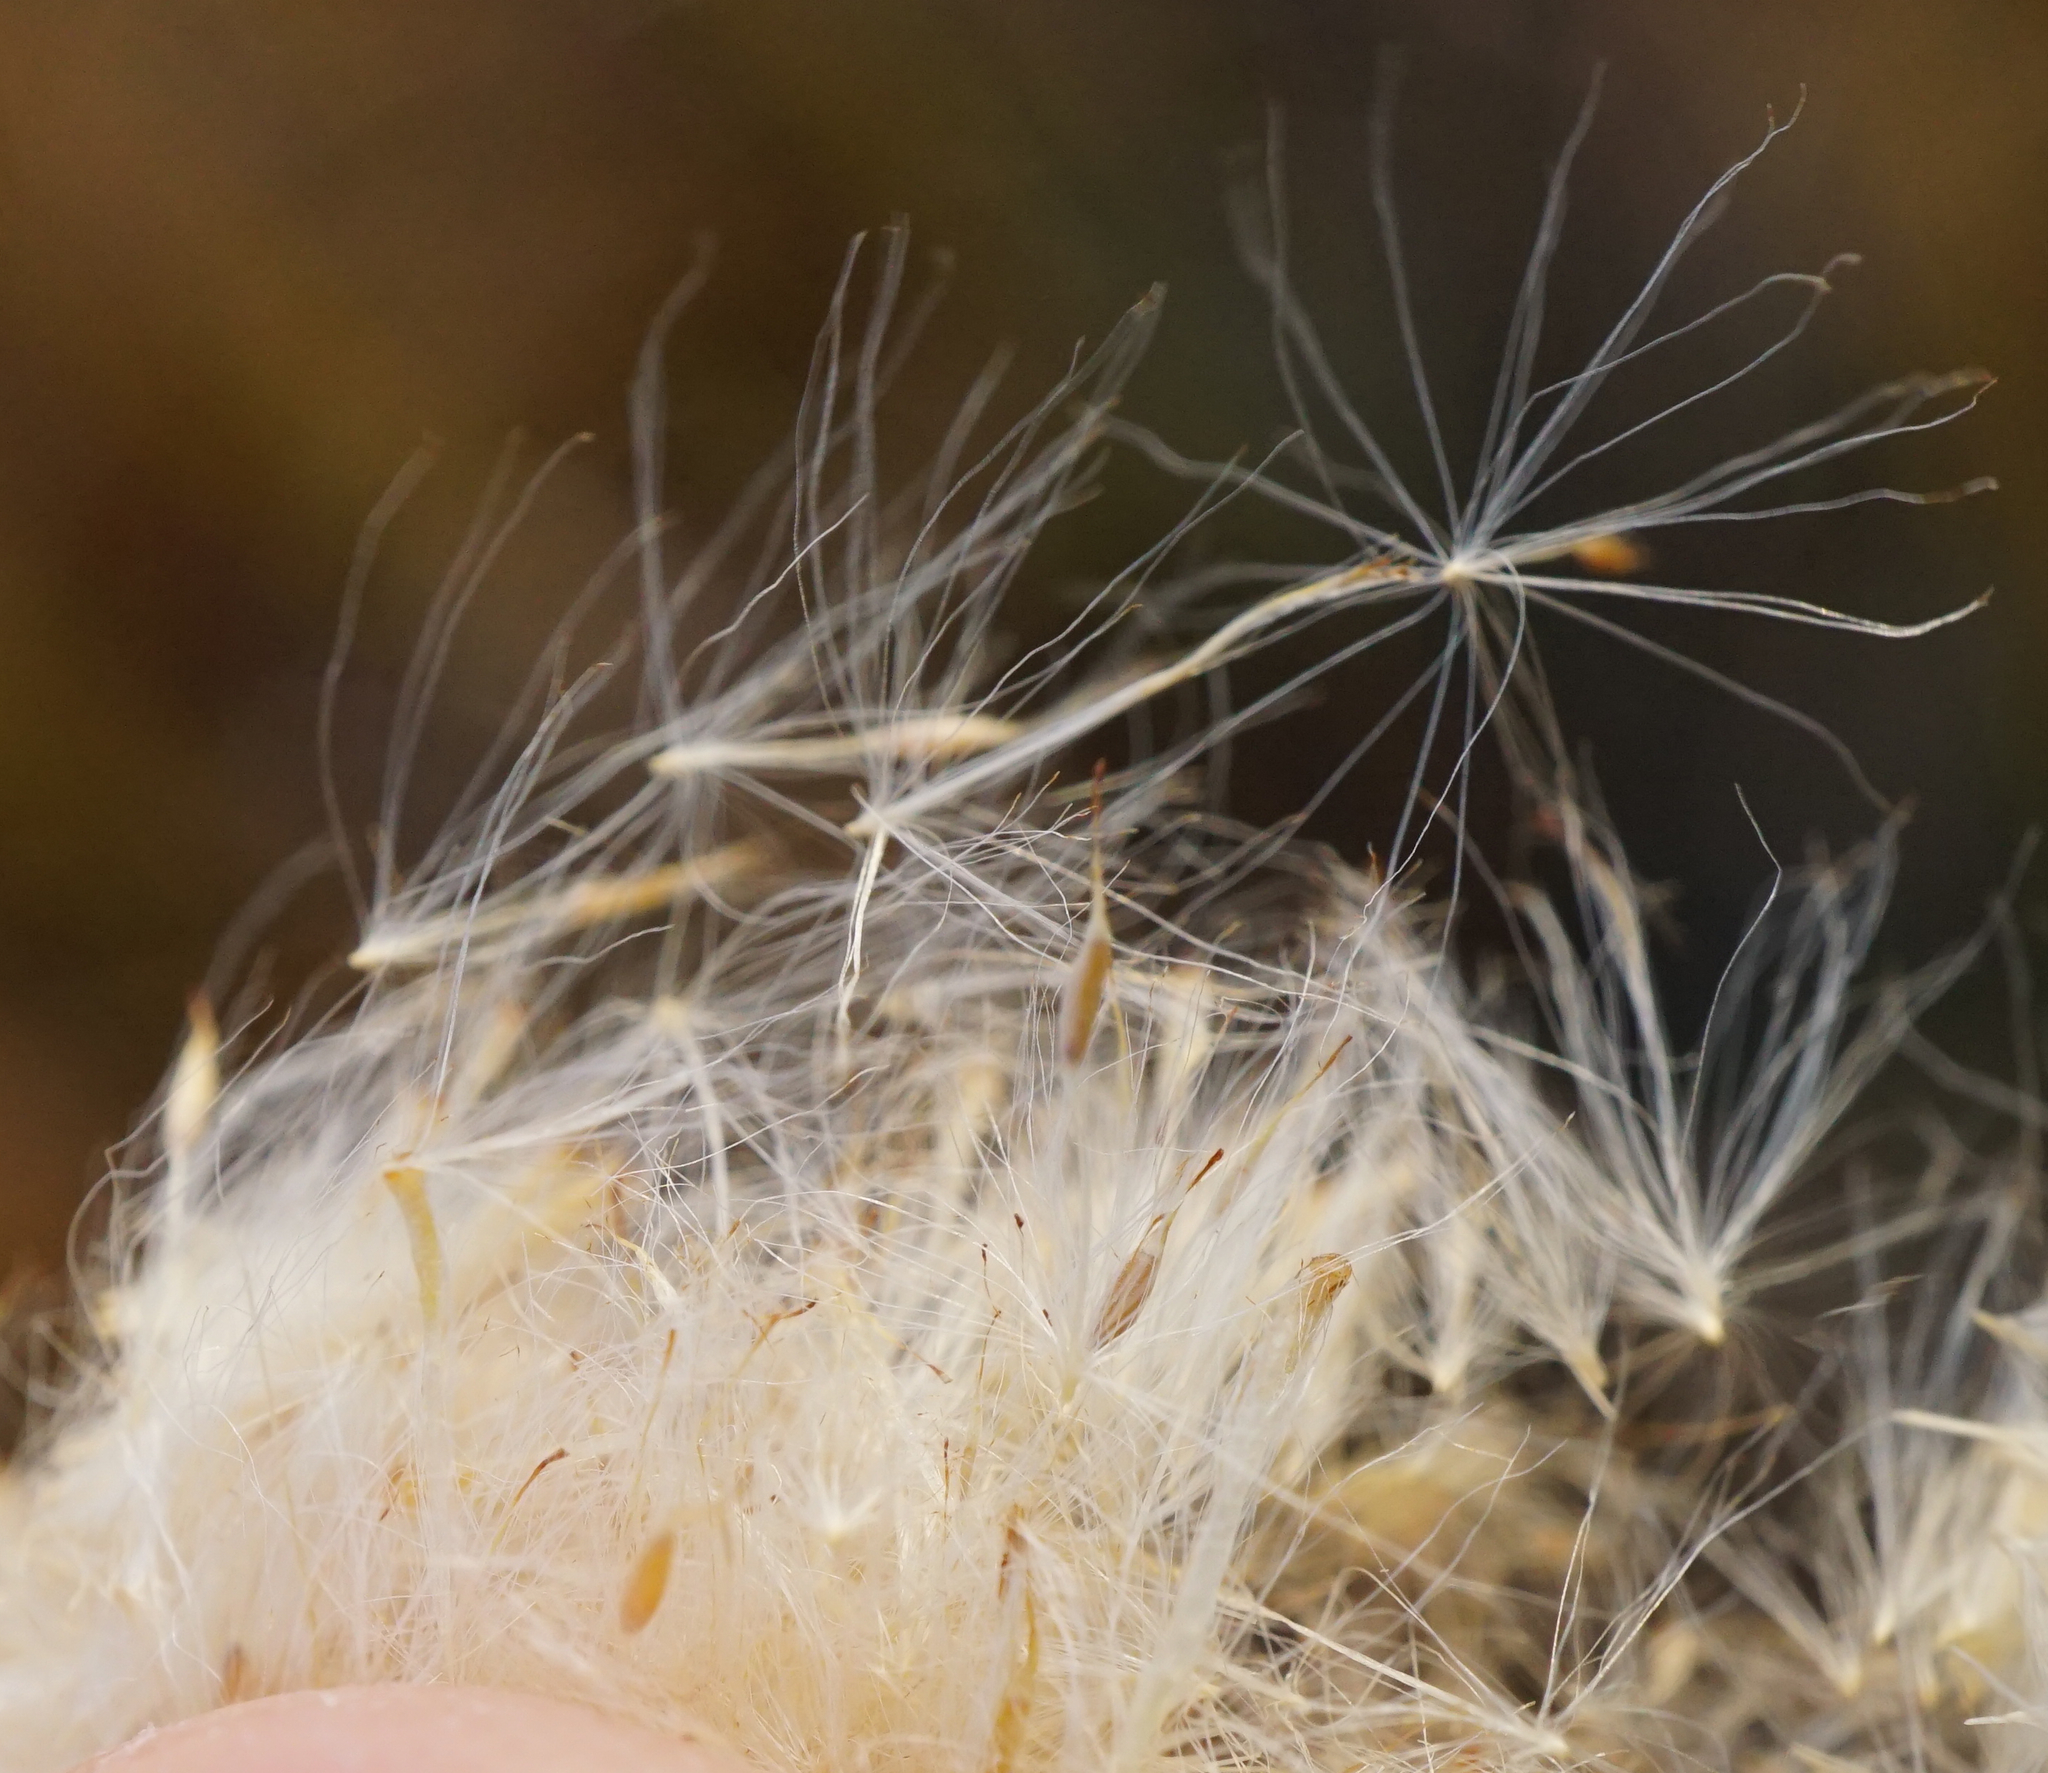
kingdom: Plantae
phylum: Tracheophyta
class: Liliopsida
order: Poales
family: Typhaceae
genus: Typha
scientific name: Typha angustifolia
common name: Lesser bulrush
